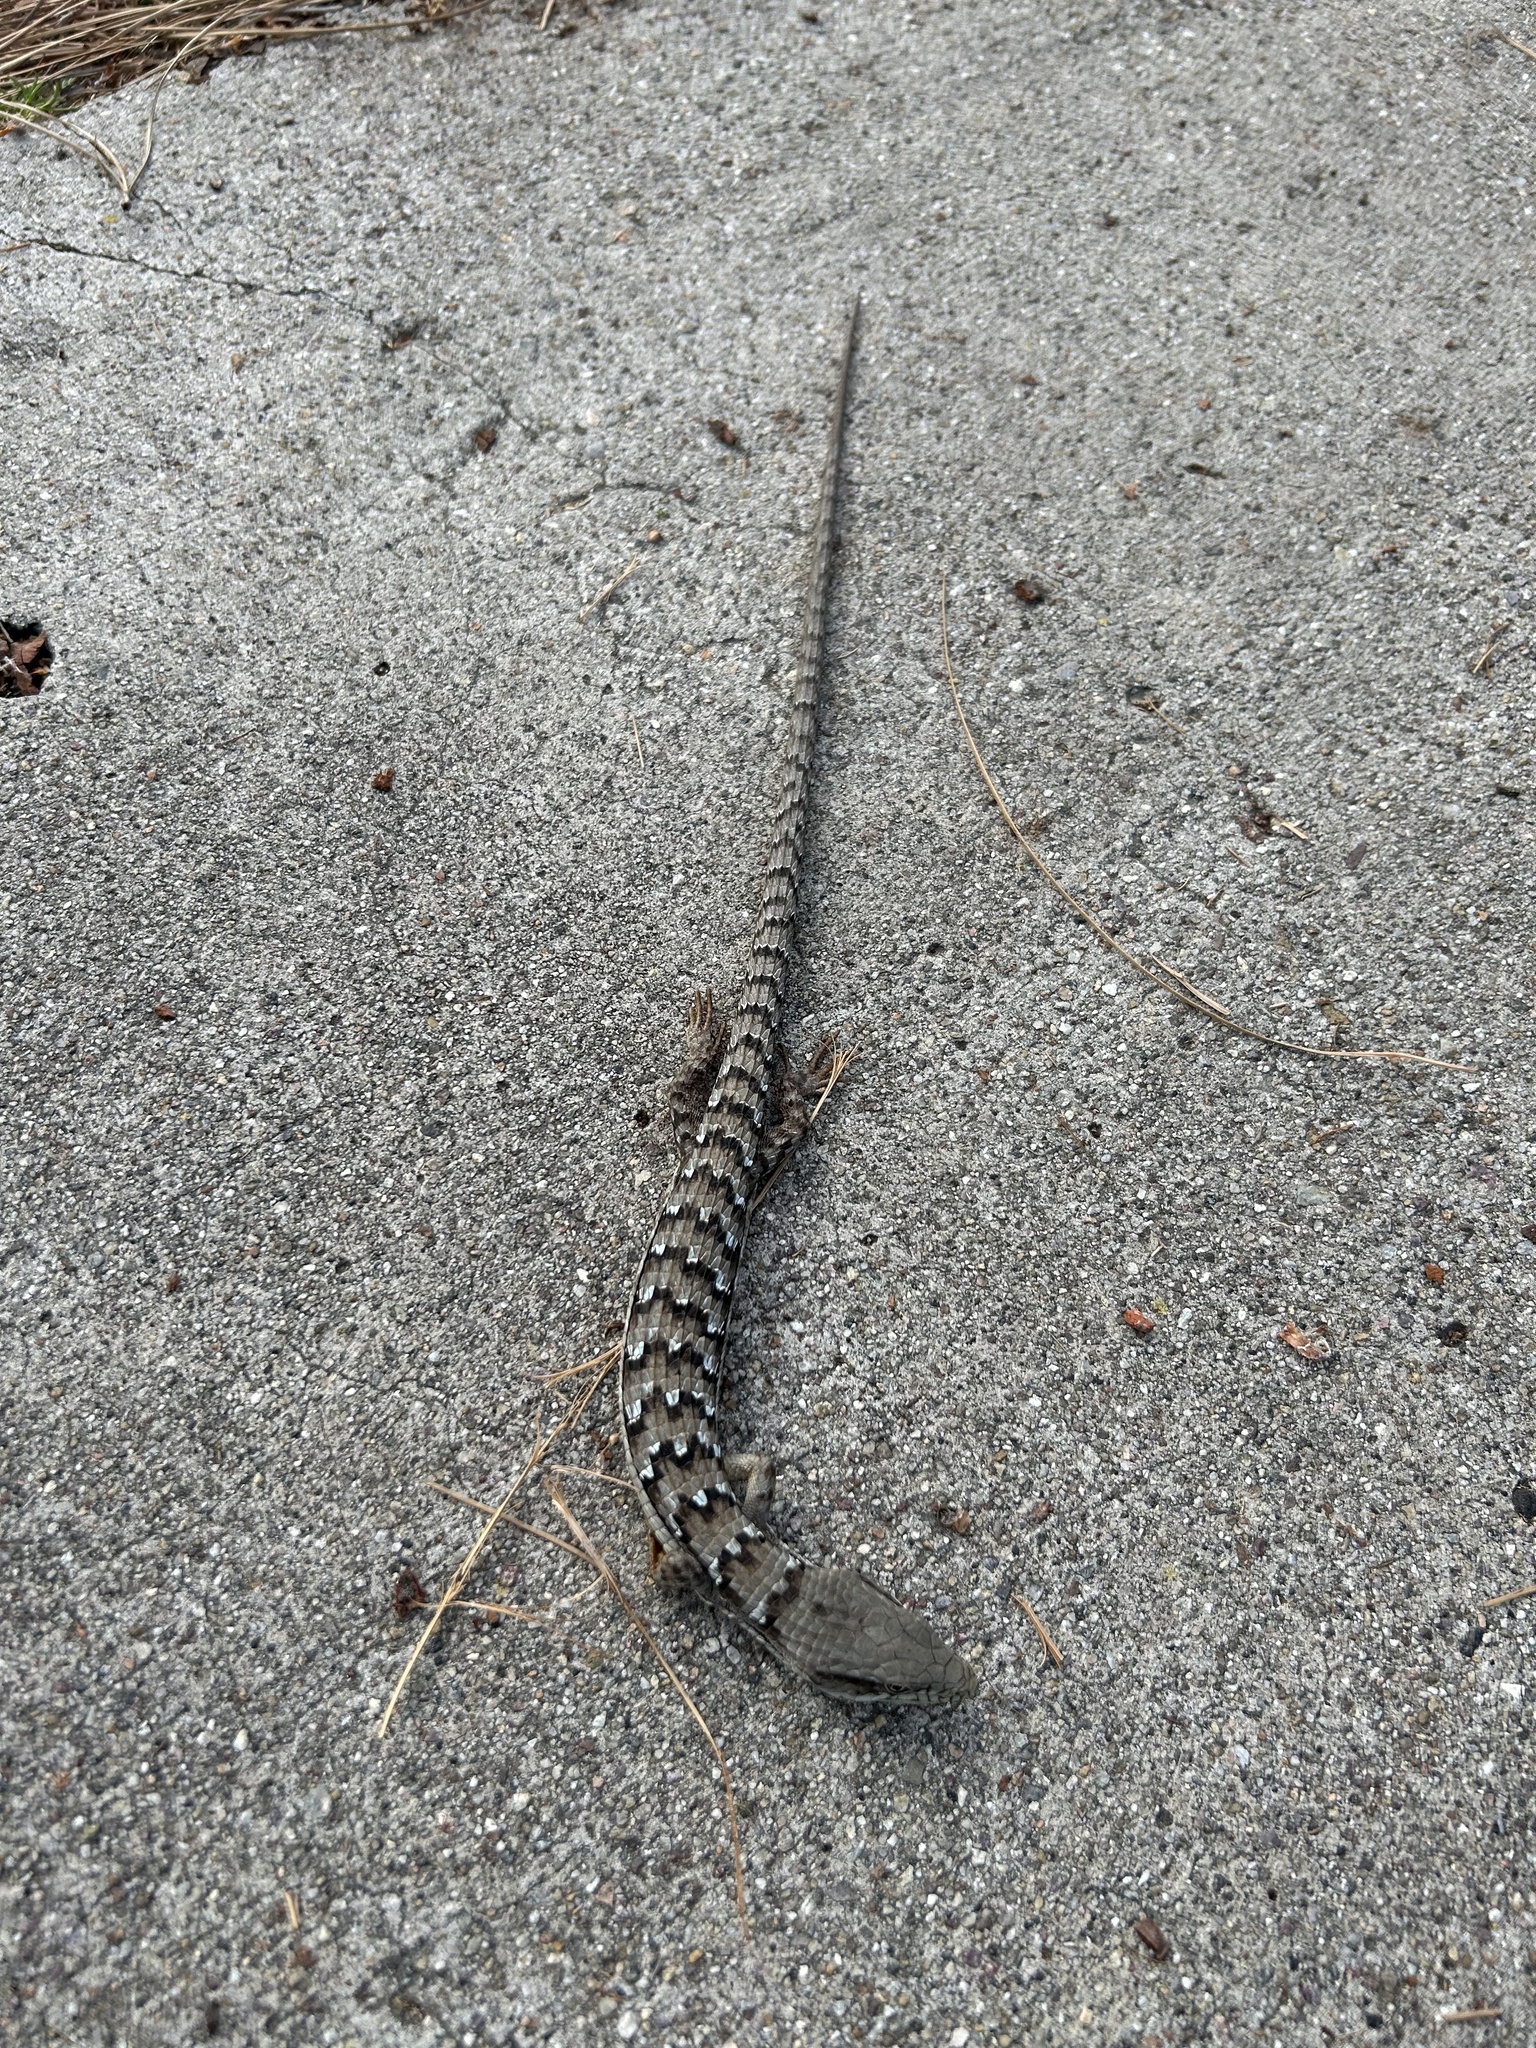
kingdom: Animalia
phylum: Chordata
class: Squamata
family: Anguidae
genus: Elgaria
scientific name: Elgaria multicarinata
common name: Southern alligator lizard
